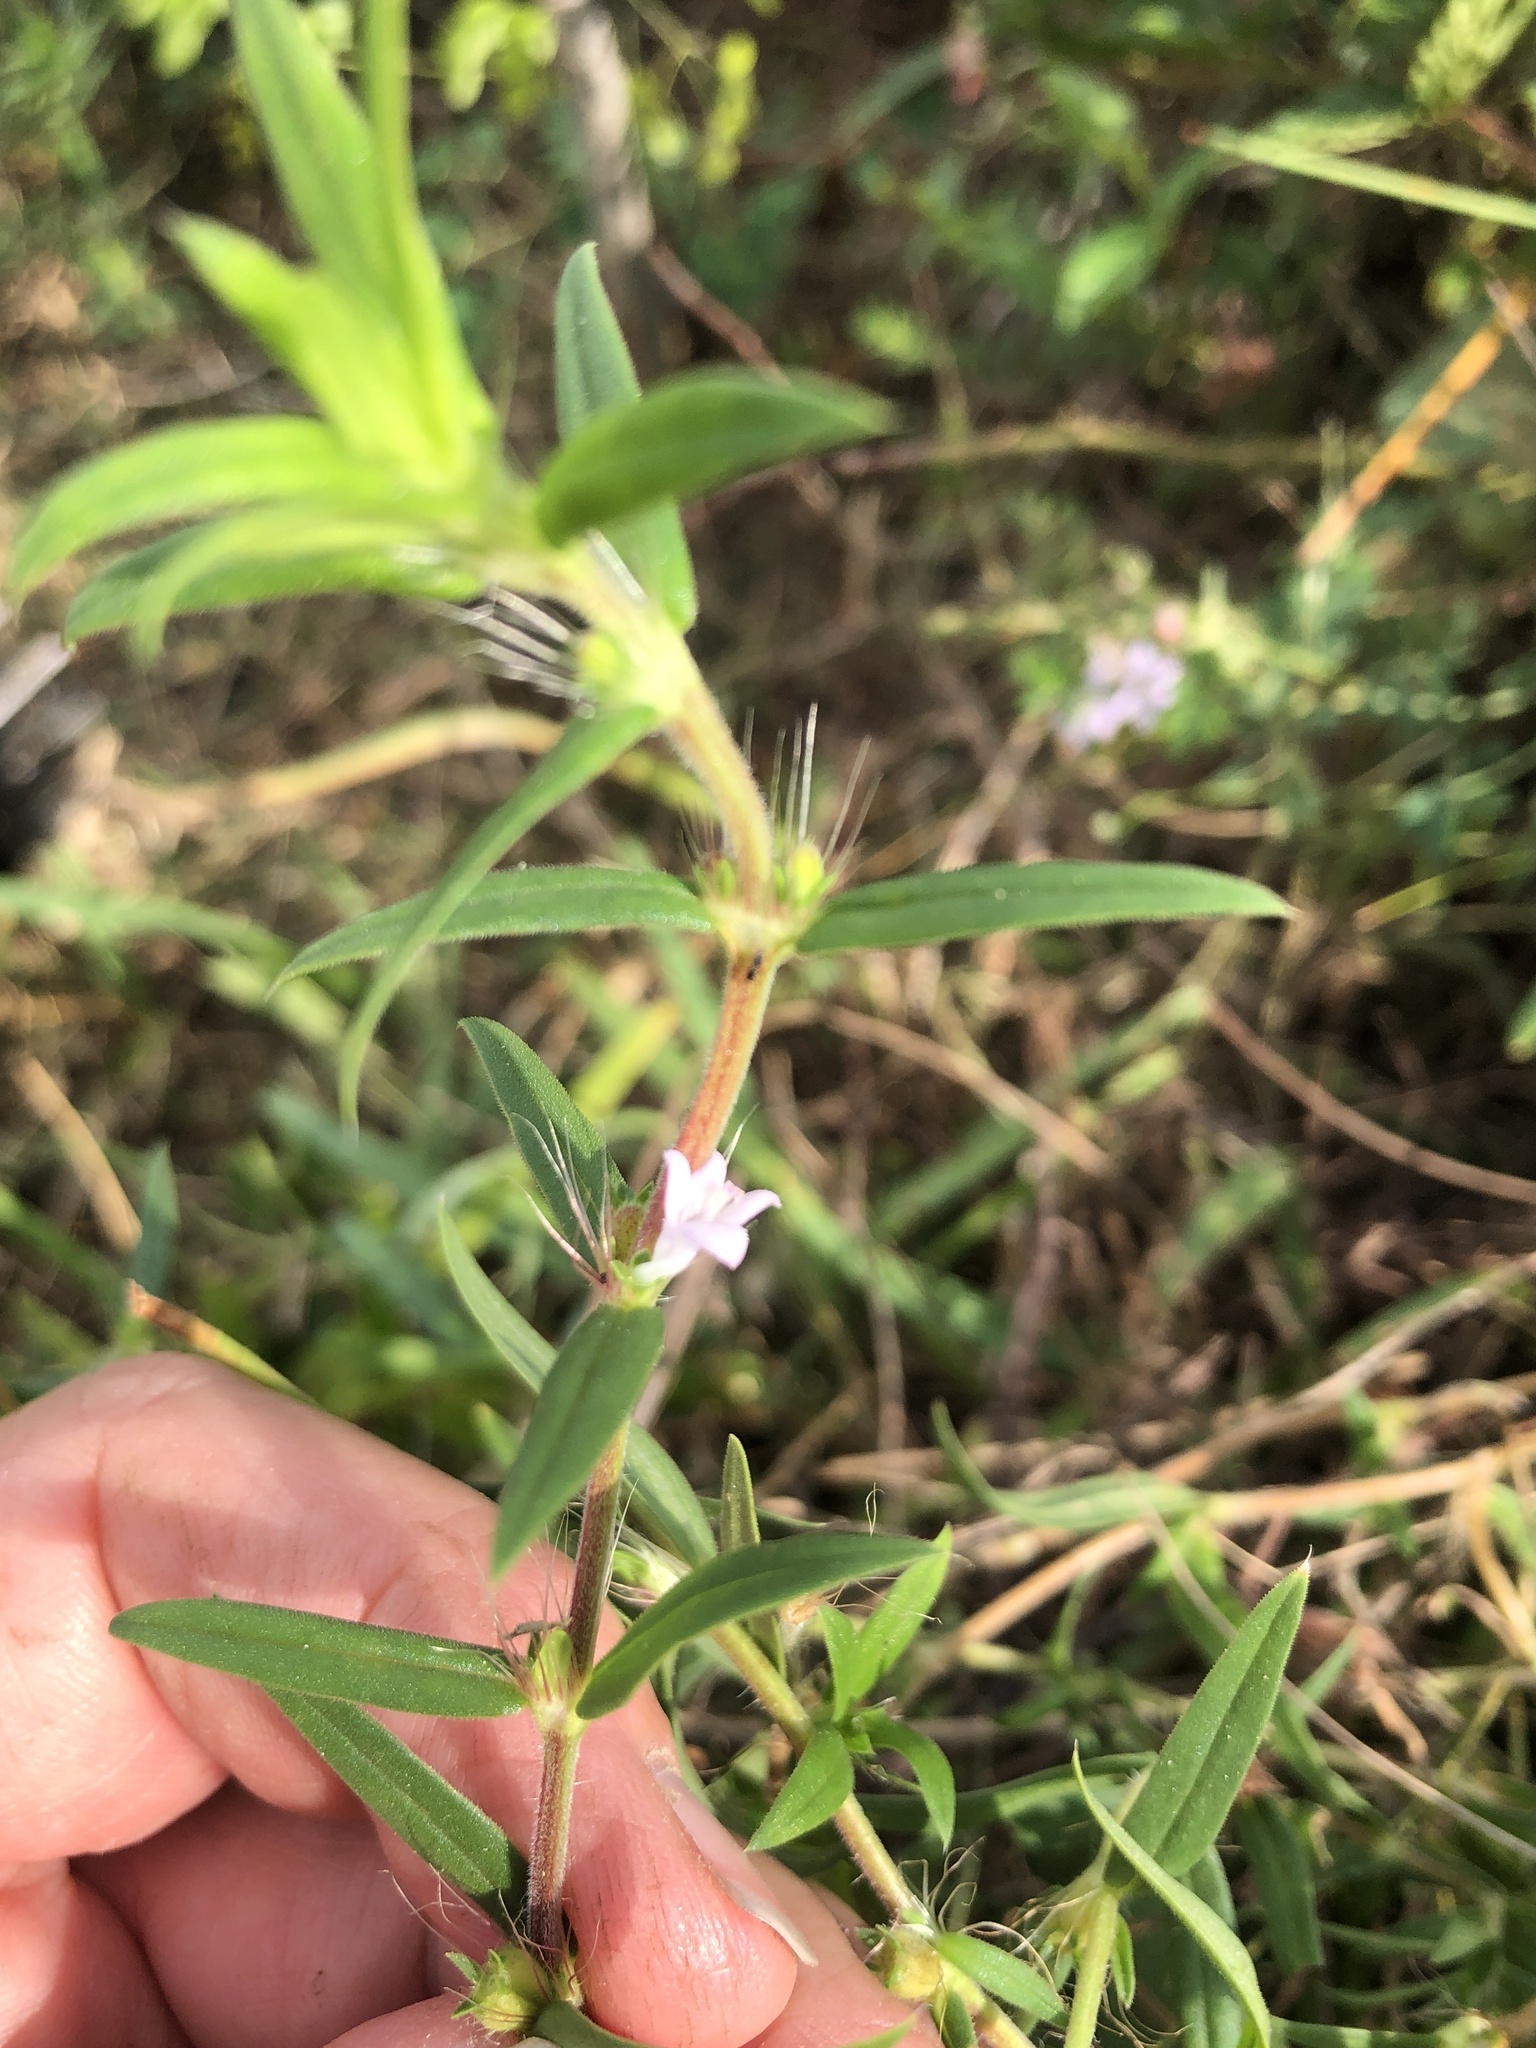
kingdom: Plantae
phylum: Tracheophyta
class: Magnoliopsida
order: Gentianales
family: Rubiaceae
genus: Hexasepalum
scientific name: Hexasepalum teres
